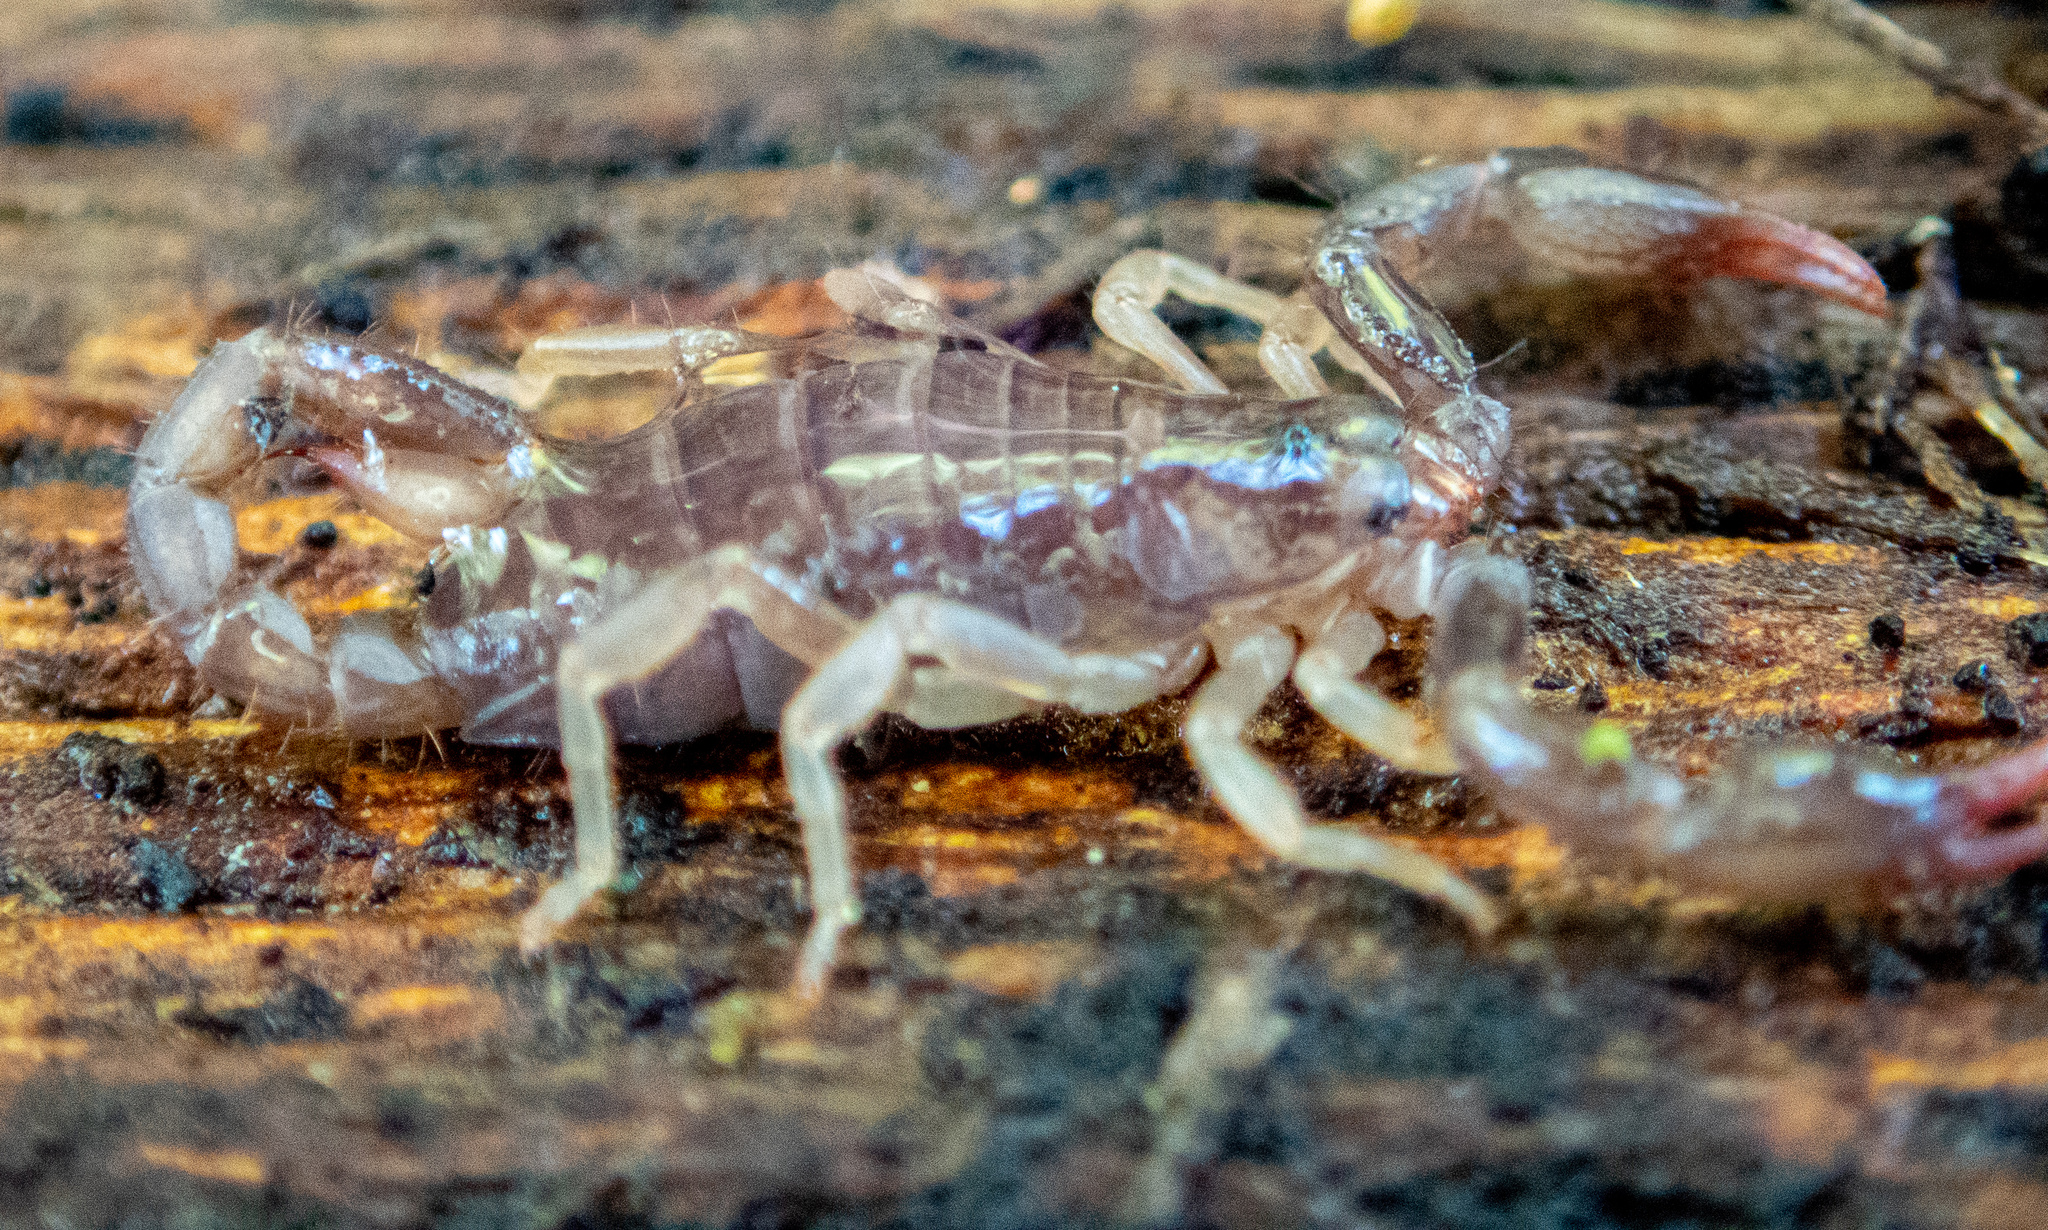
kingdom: Animalia
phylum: Arthropoda
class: Arachnida
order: Scorpiones
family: Chactidae
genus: Uroctonus
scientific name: Uroctonus mordax
